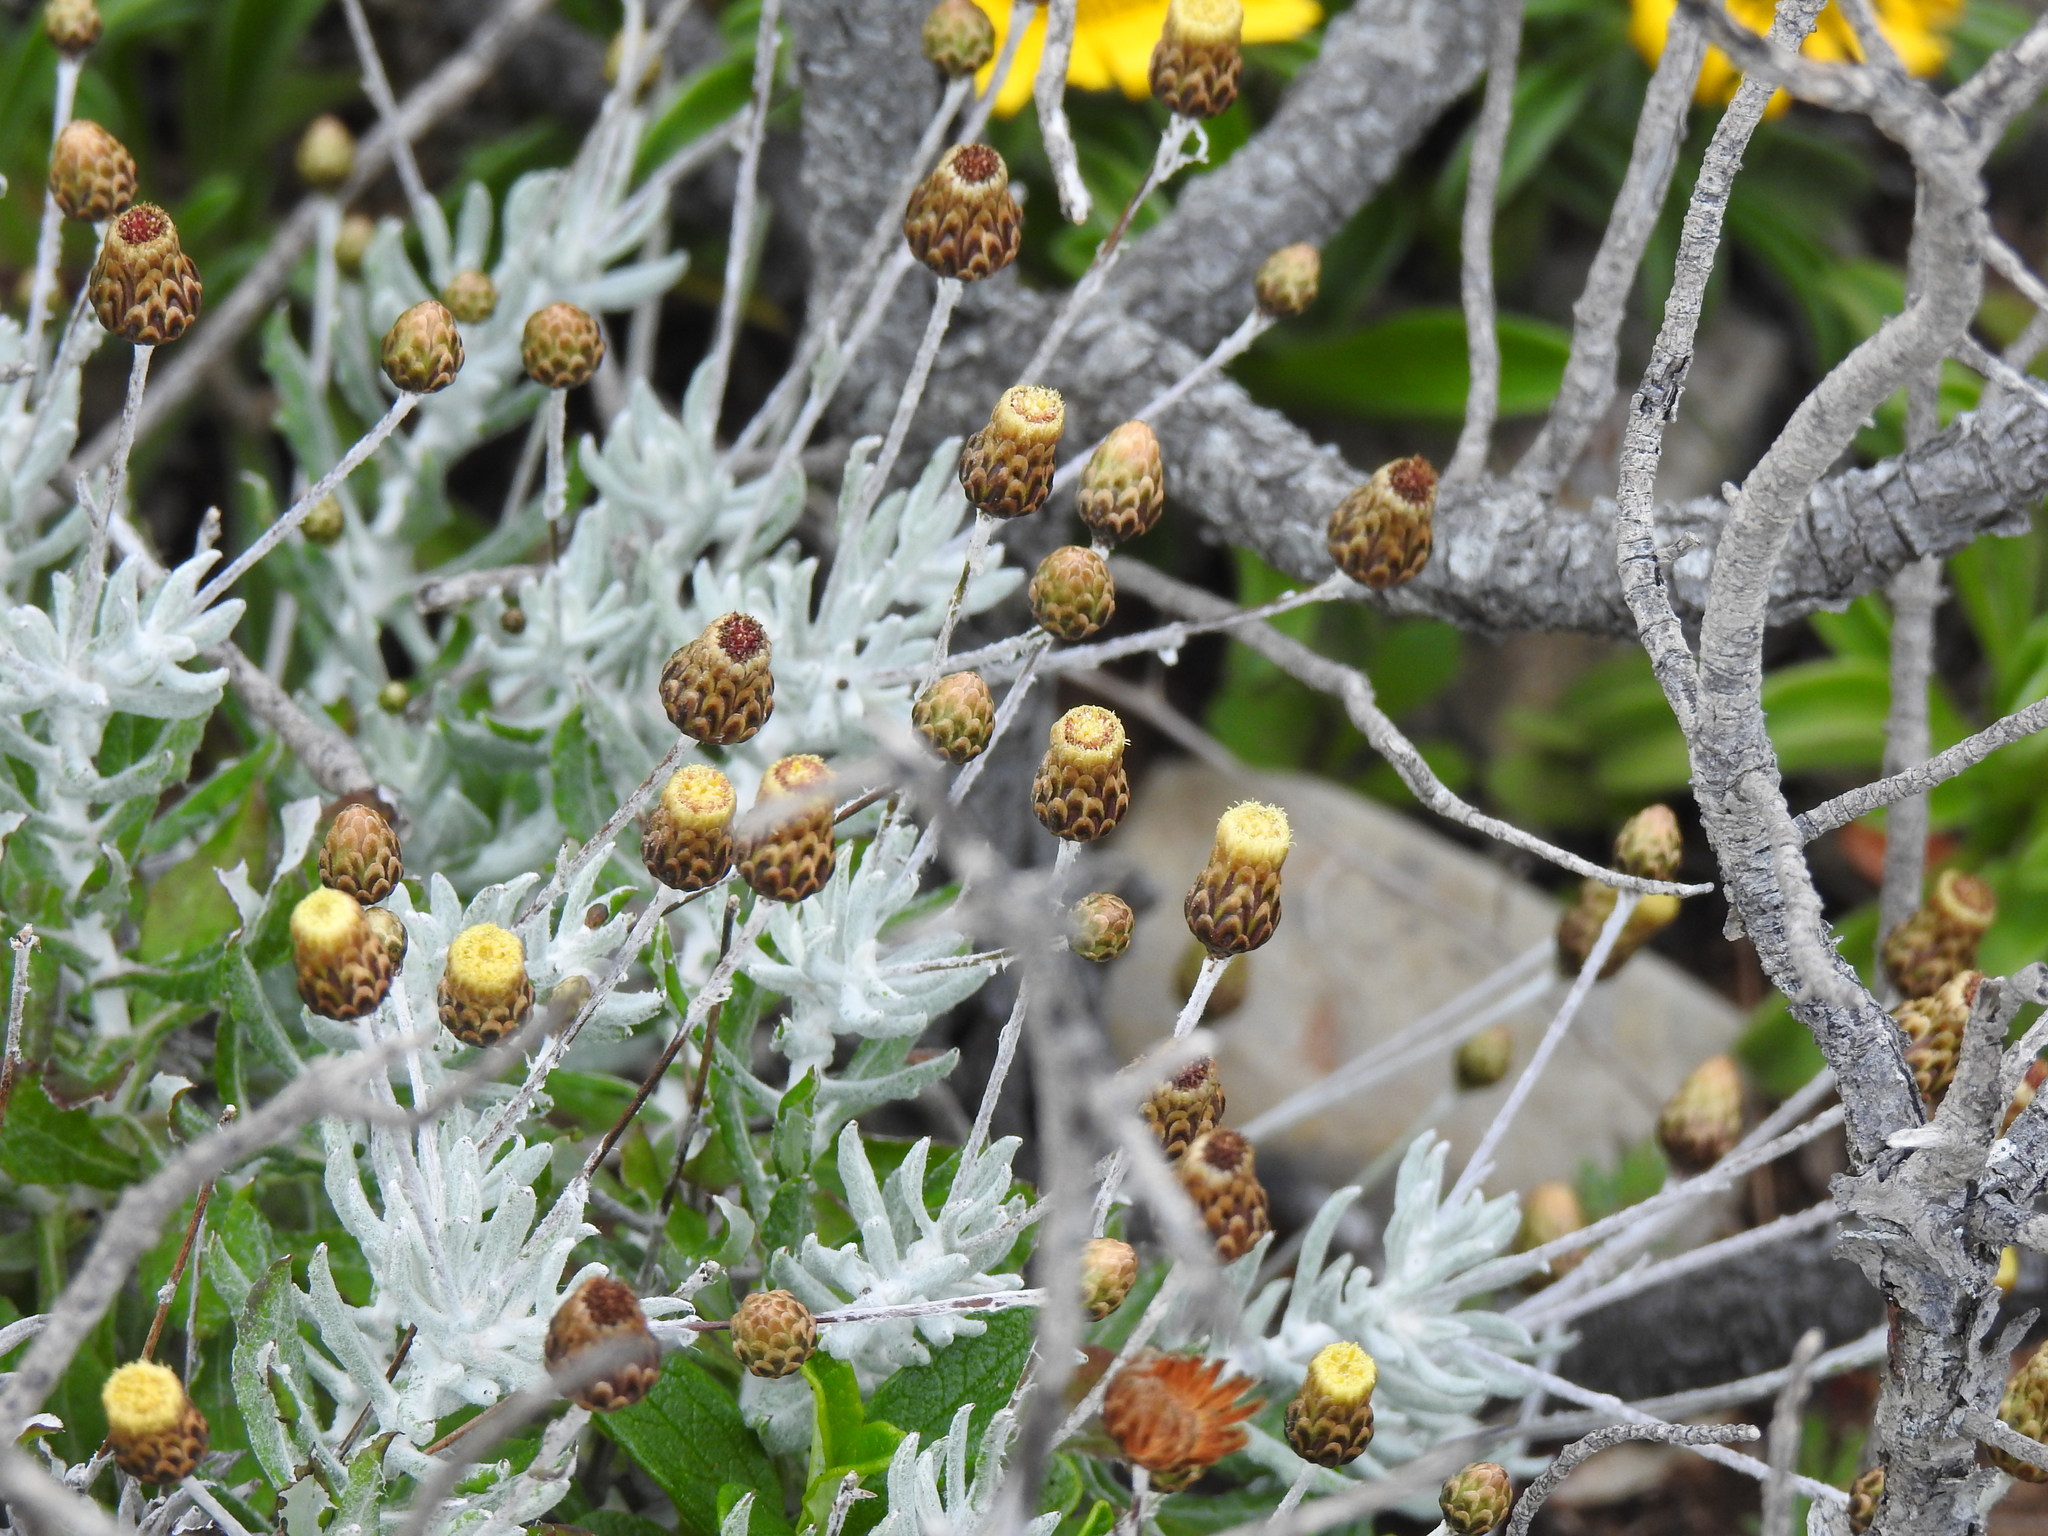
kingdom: Plantae
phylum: Tracheophyta
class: Magnoliopsida
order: Asterales
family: Asteraceae
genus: Phagnalon
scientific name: Phagnalon rupestre
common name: Rock phagnalon
